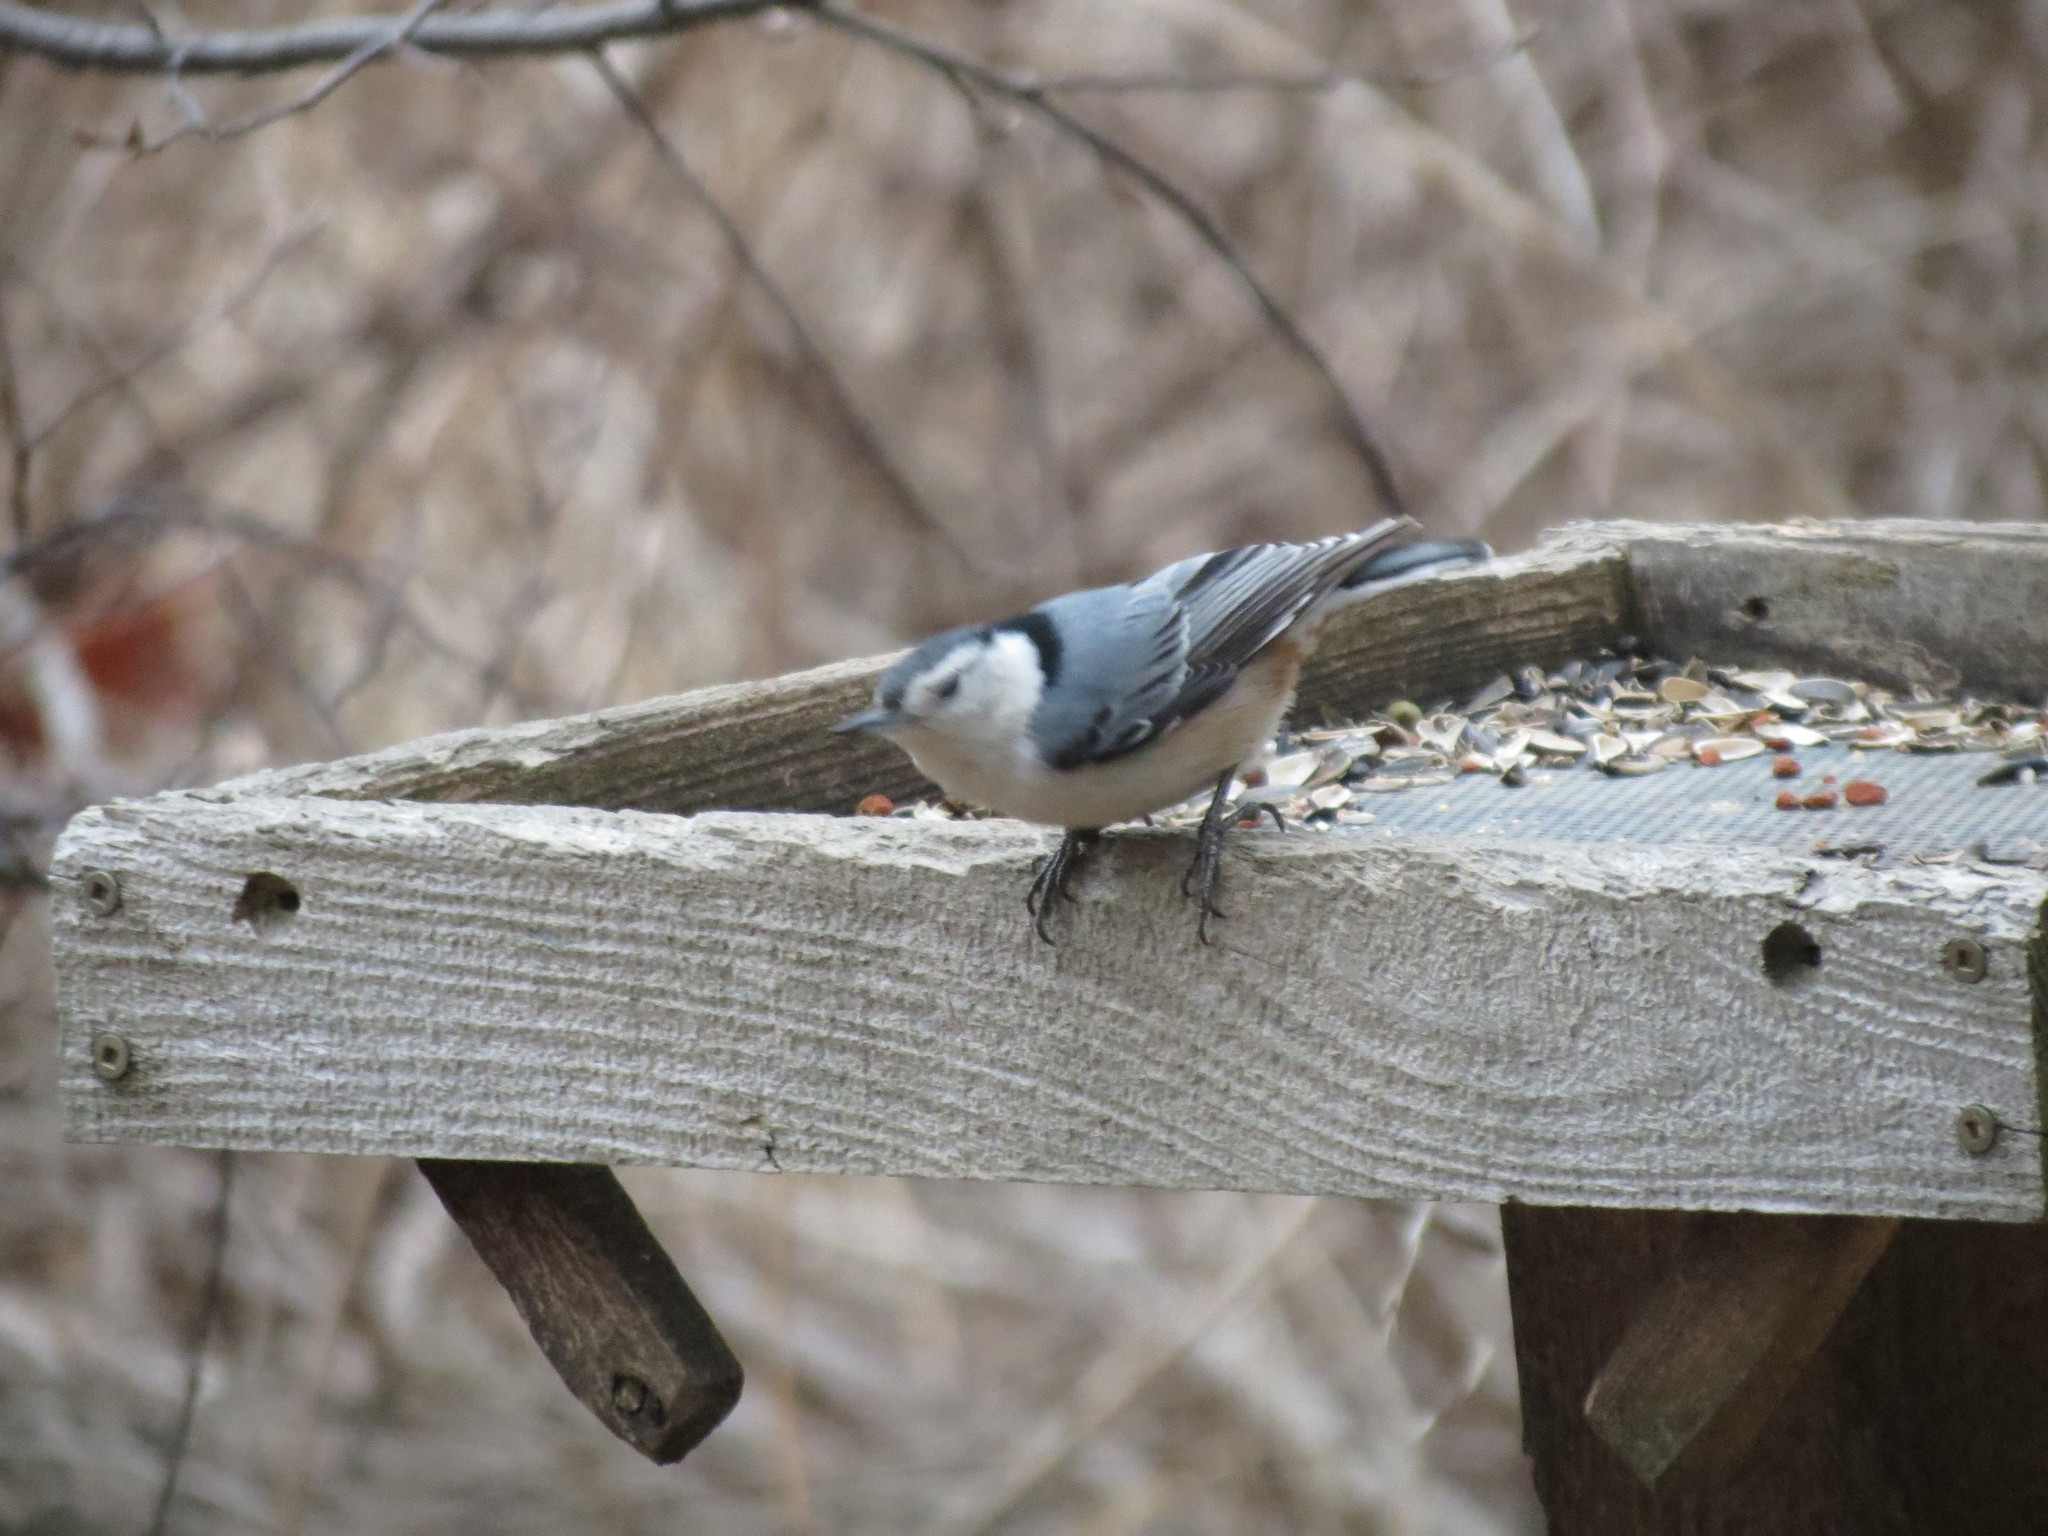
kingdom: Animalia
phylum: Chordata
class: Aves
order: Passeriformes
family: Sittidae
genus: Sitta
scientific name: Sitta carolinensis
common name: White-breasted nuthatch
